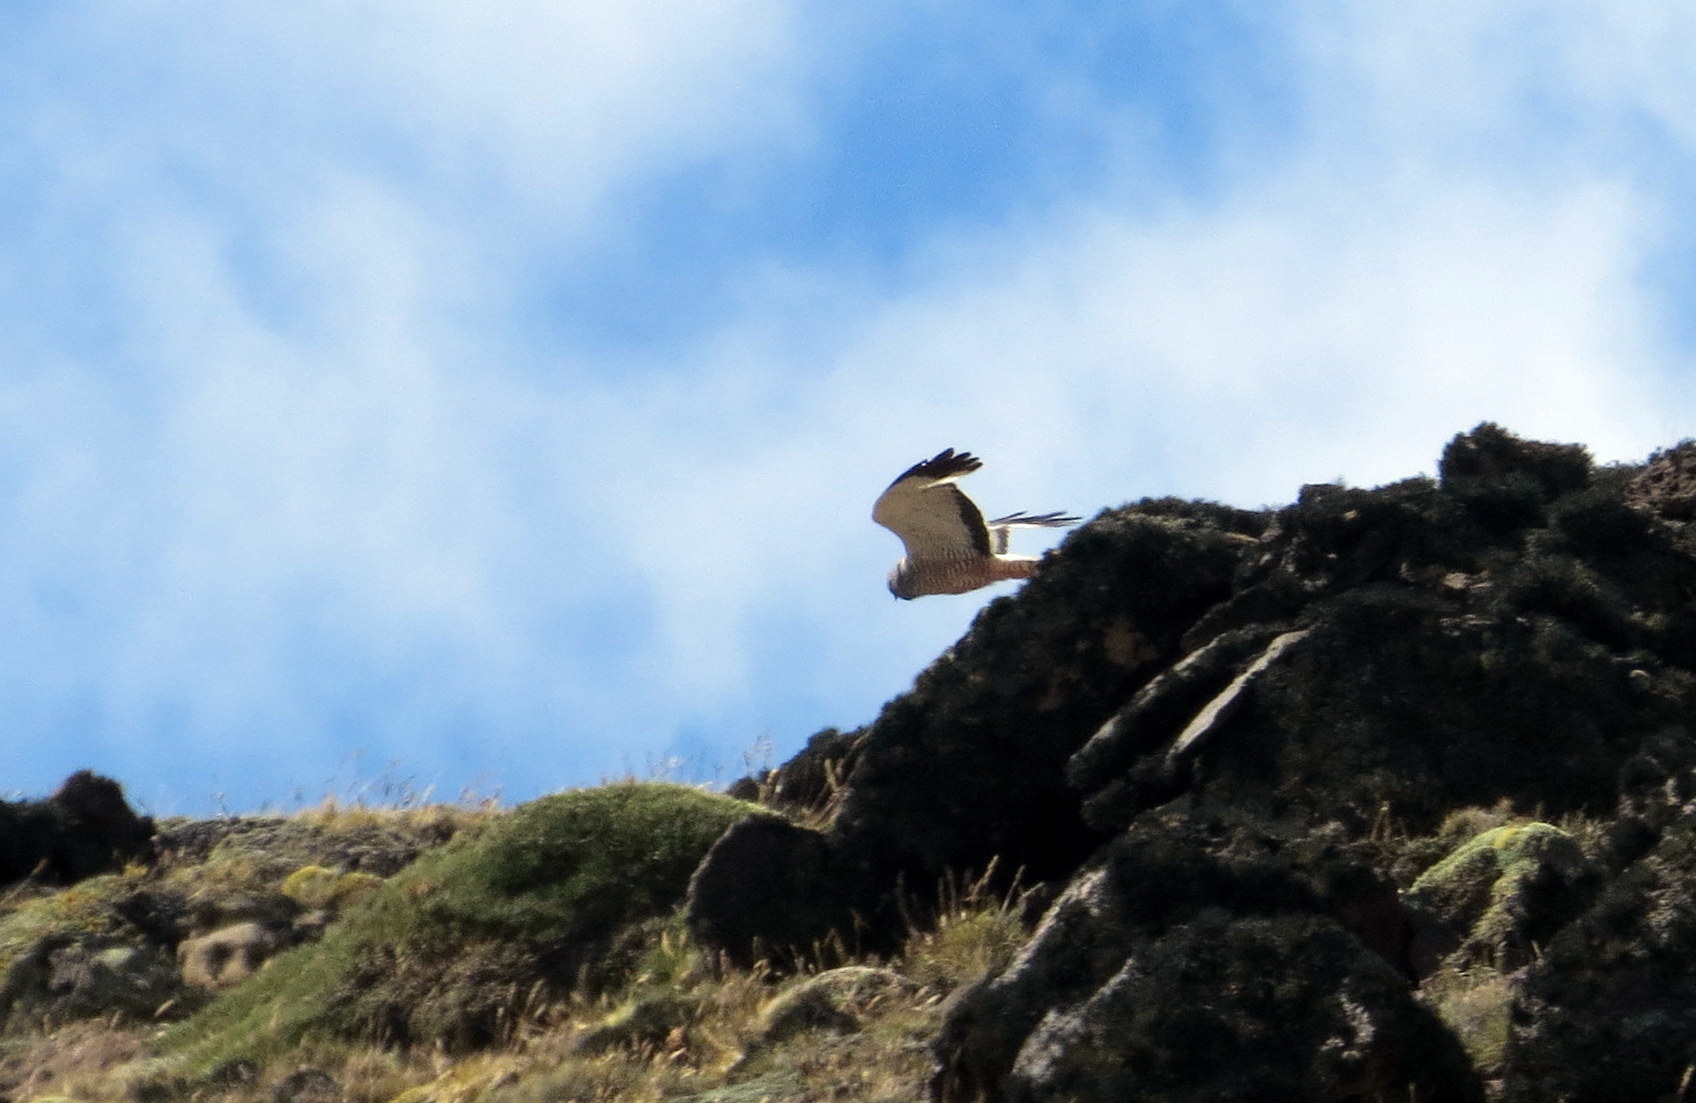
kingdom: Animalia
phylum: Chordata
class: Aves
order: Accipitriformes
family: Accipitridae
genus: Circus
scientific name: Circus cinereus
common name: Cinereous harrier
